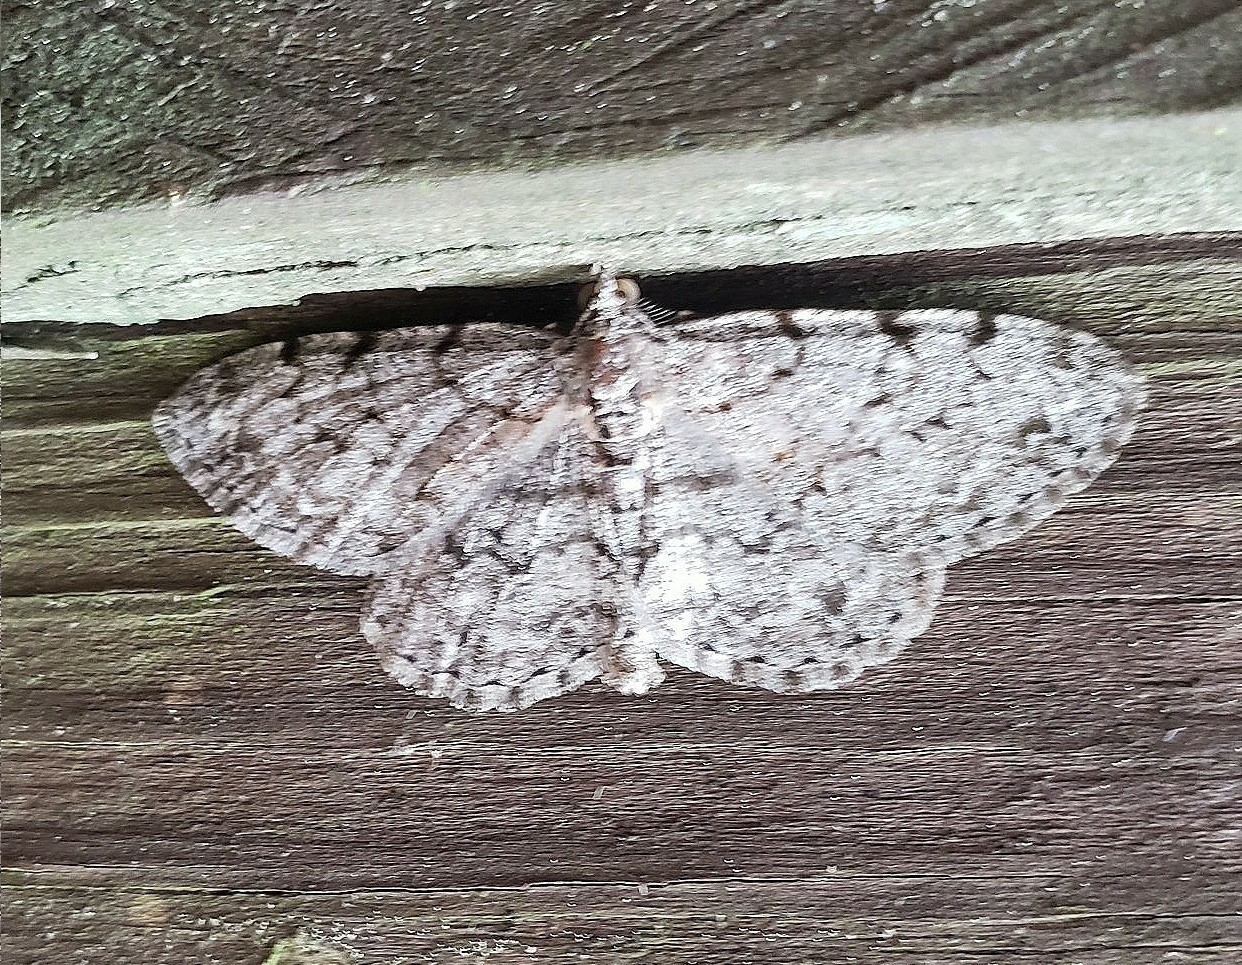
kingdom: Animalia
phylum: Arthropoda
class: Insecta
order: Lepidoptera
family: Geometridae
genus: Protoboarmia
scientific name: Protoboarmia porcelaria
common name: Porcelain gray
